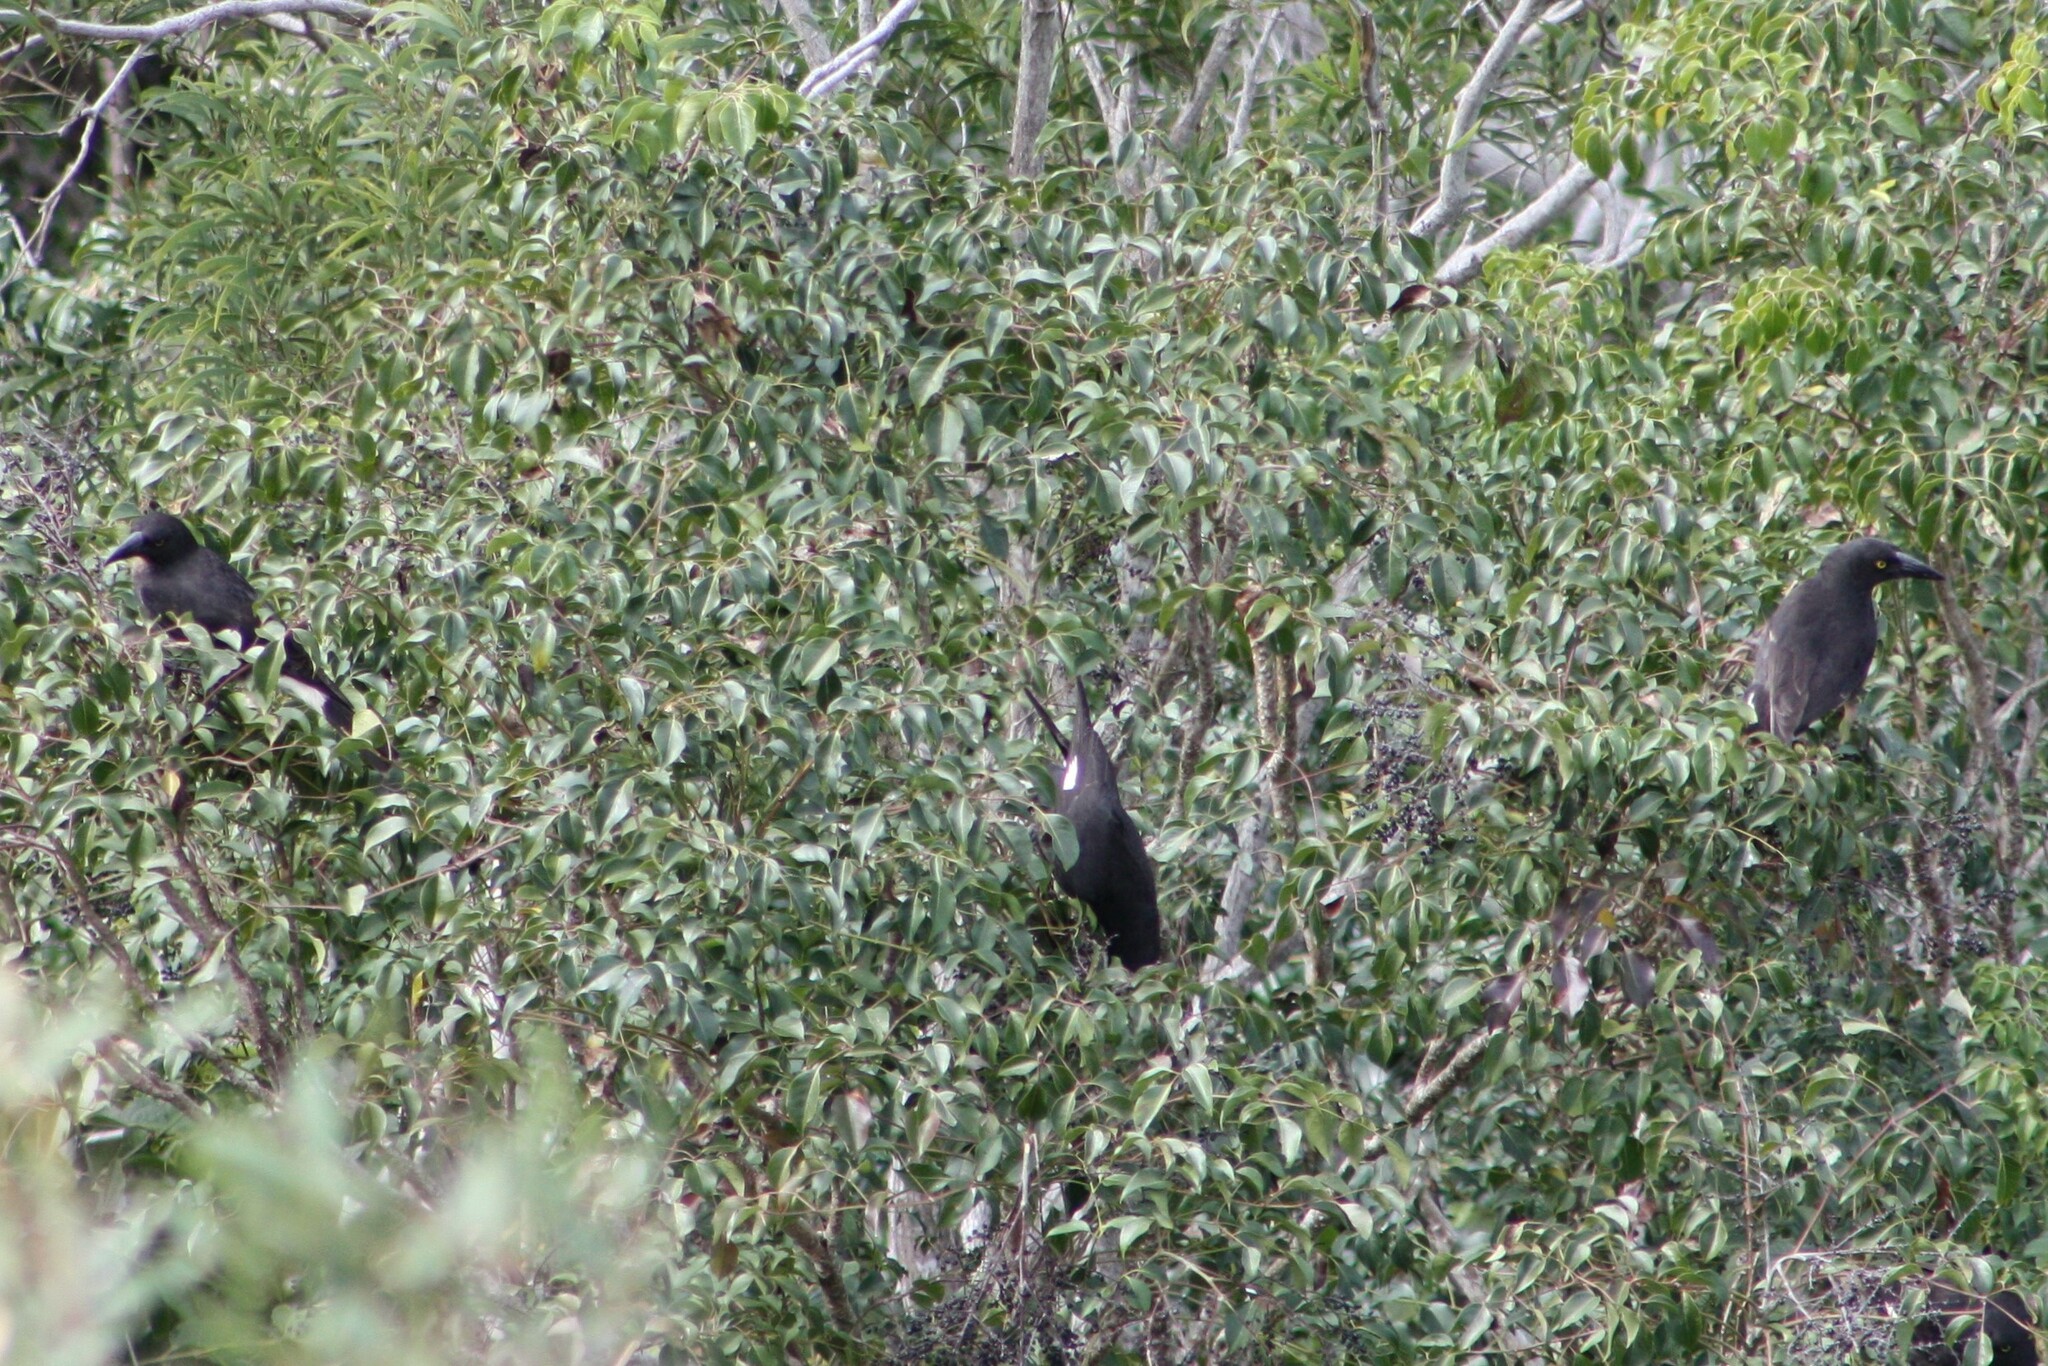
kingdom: Animalia
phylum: Chordata
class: Aves
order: Passeriformes
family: Cracticidae
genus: Strepera
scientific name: Strepera graculina
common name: Pied currawong
